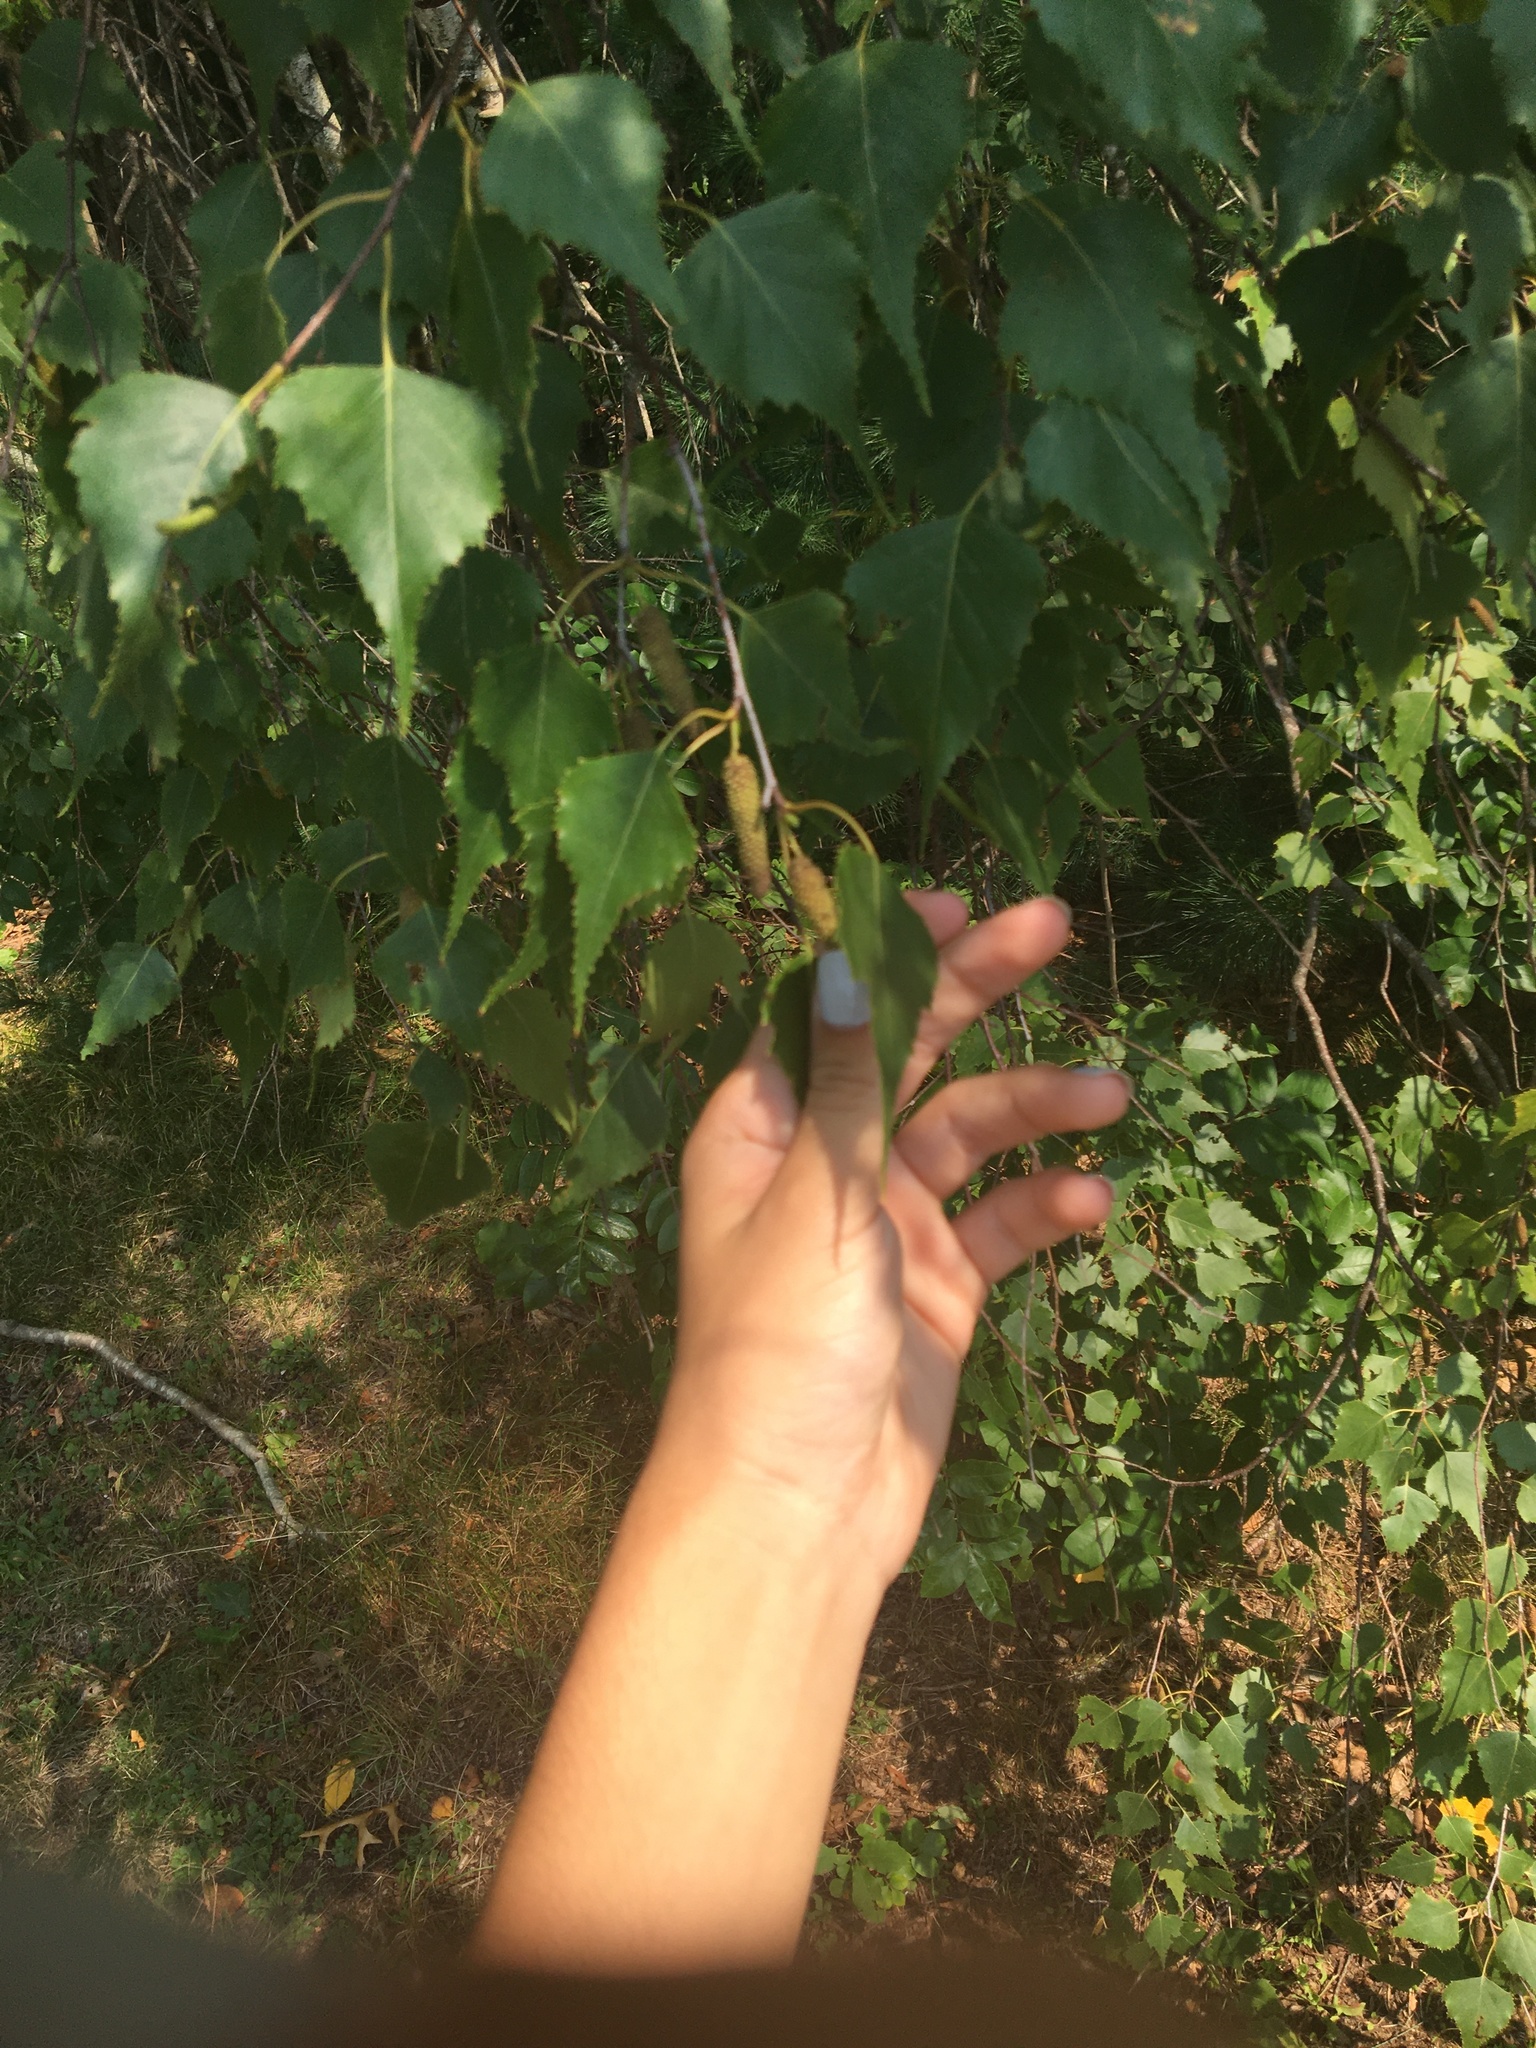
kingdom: Plantae
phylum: Tracheophyta
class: Magnoliopsida
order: Fagales
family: Betulaceae
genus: Betula
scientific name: Betula populifolia
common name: Fire birch
